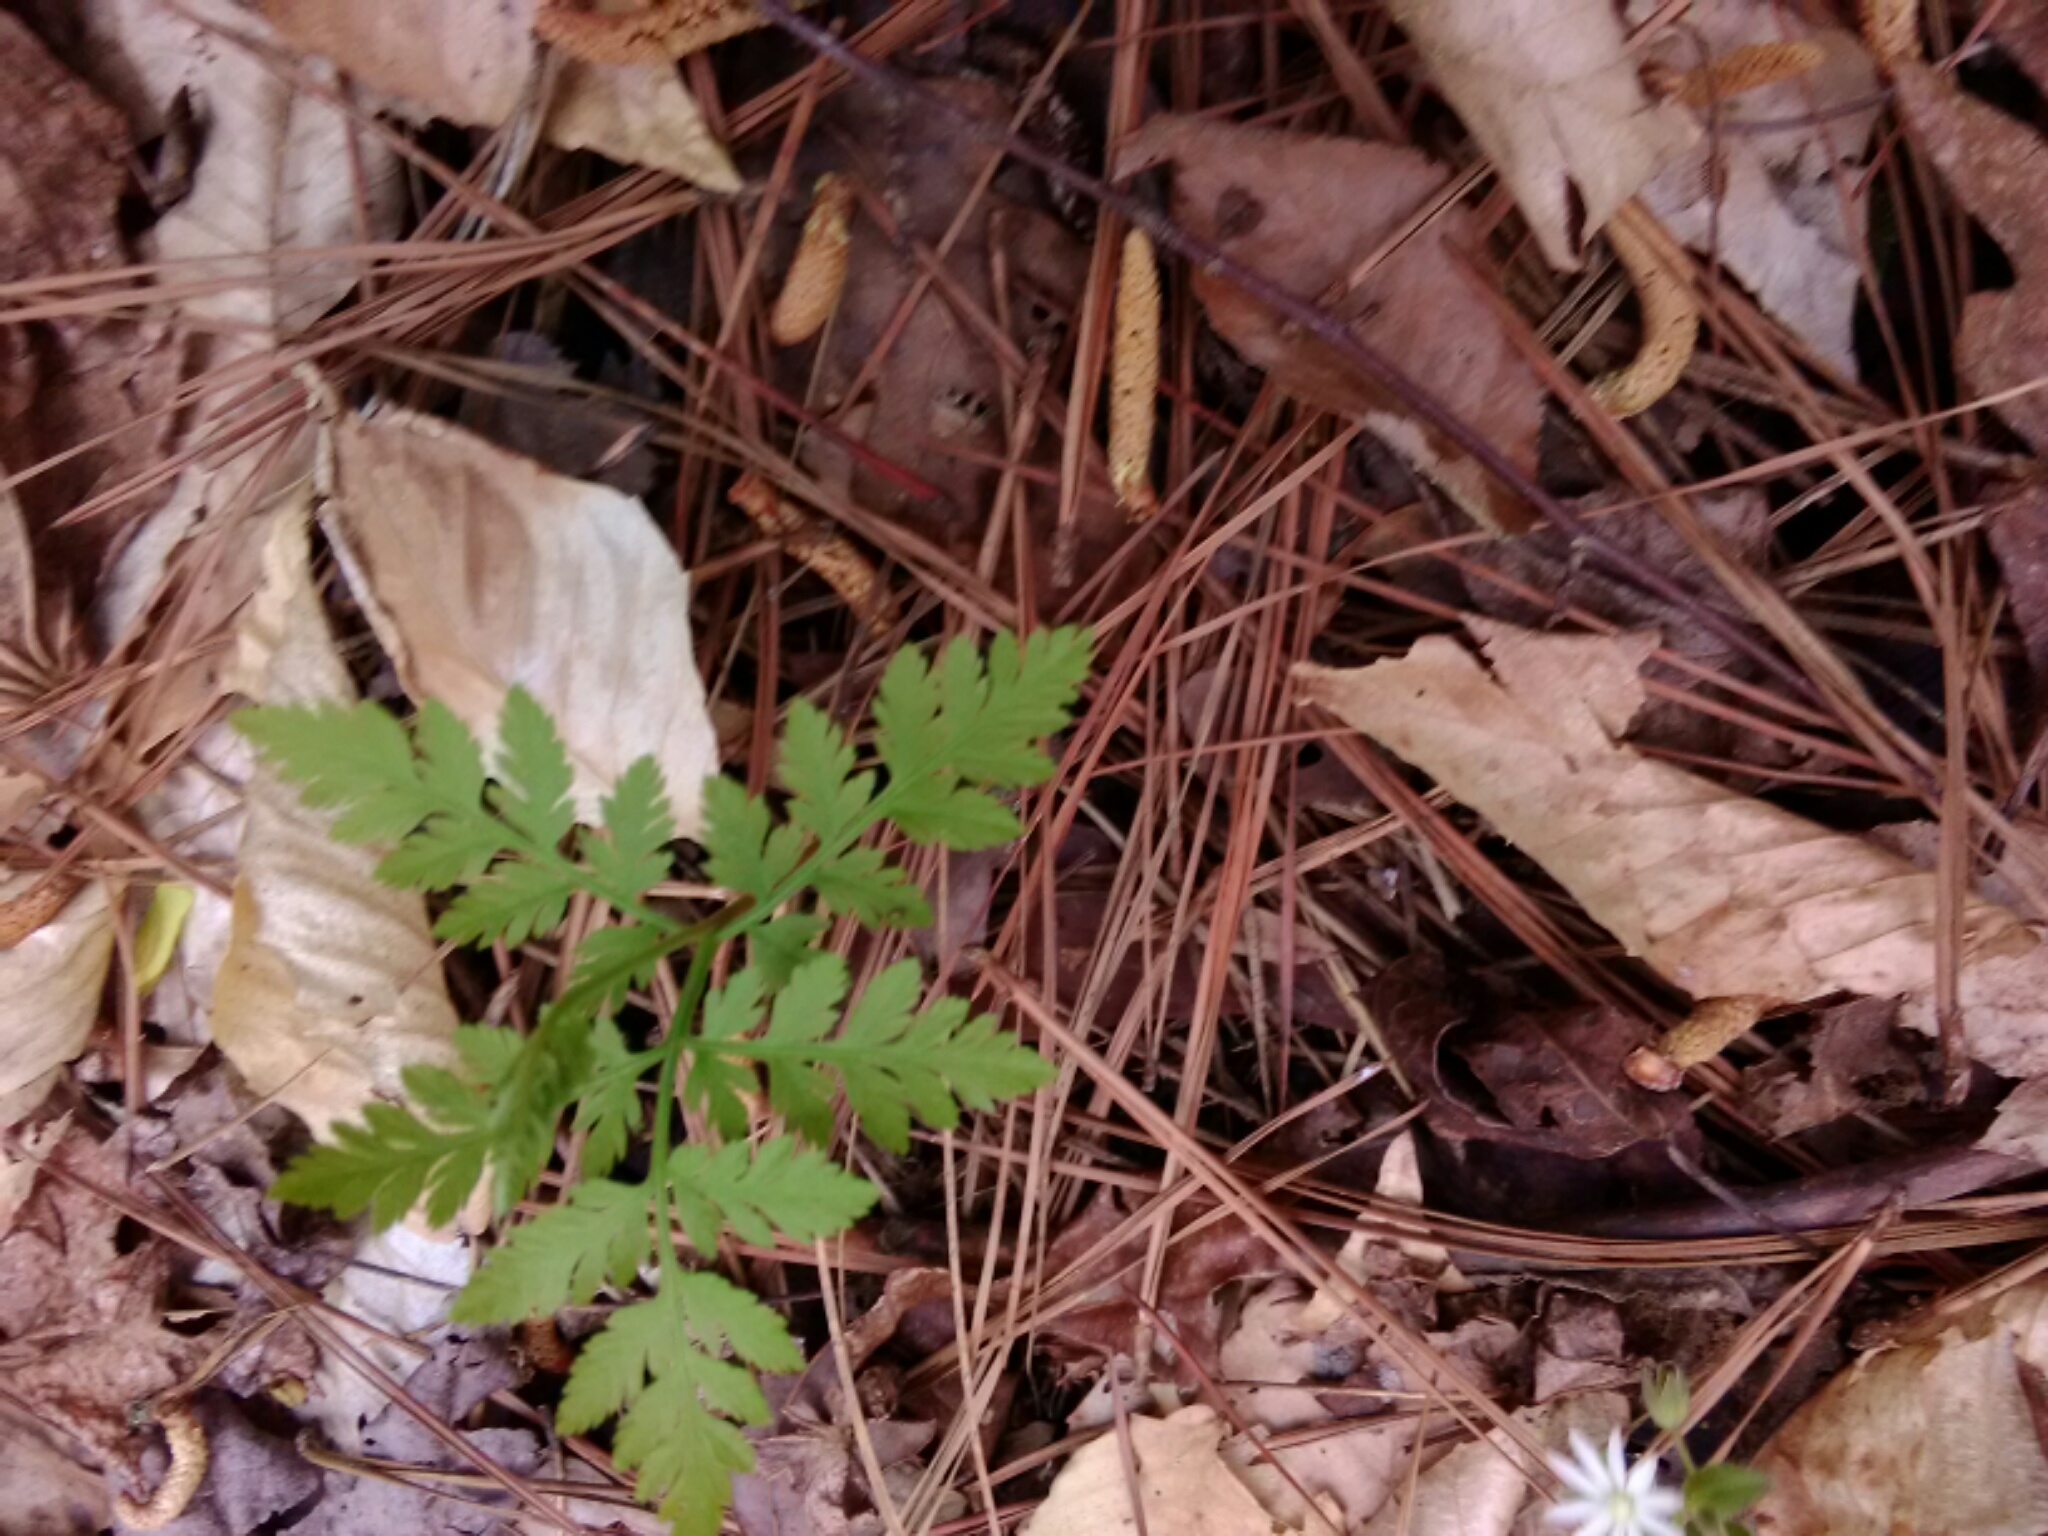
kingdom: Plantae
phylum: Tracheophyta
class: Polypodiopsida
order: Ophioglossales
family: Ophioglossaceae
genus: Botrypus
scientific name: Botrypus virginianus
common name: Common grapefern
